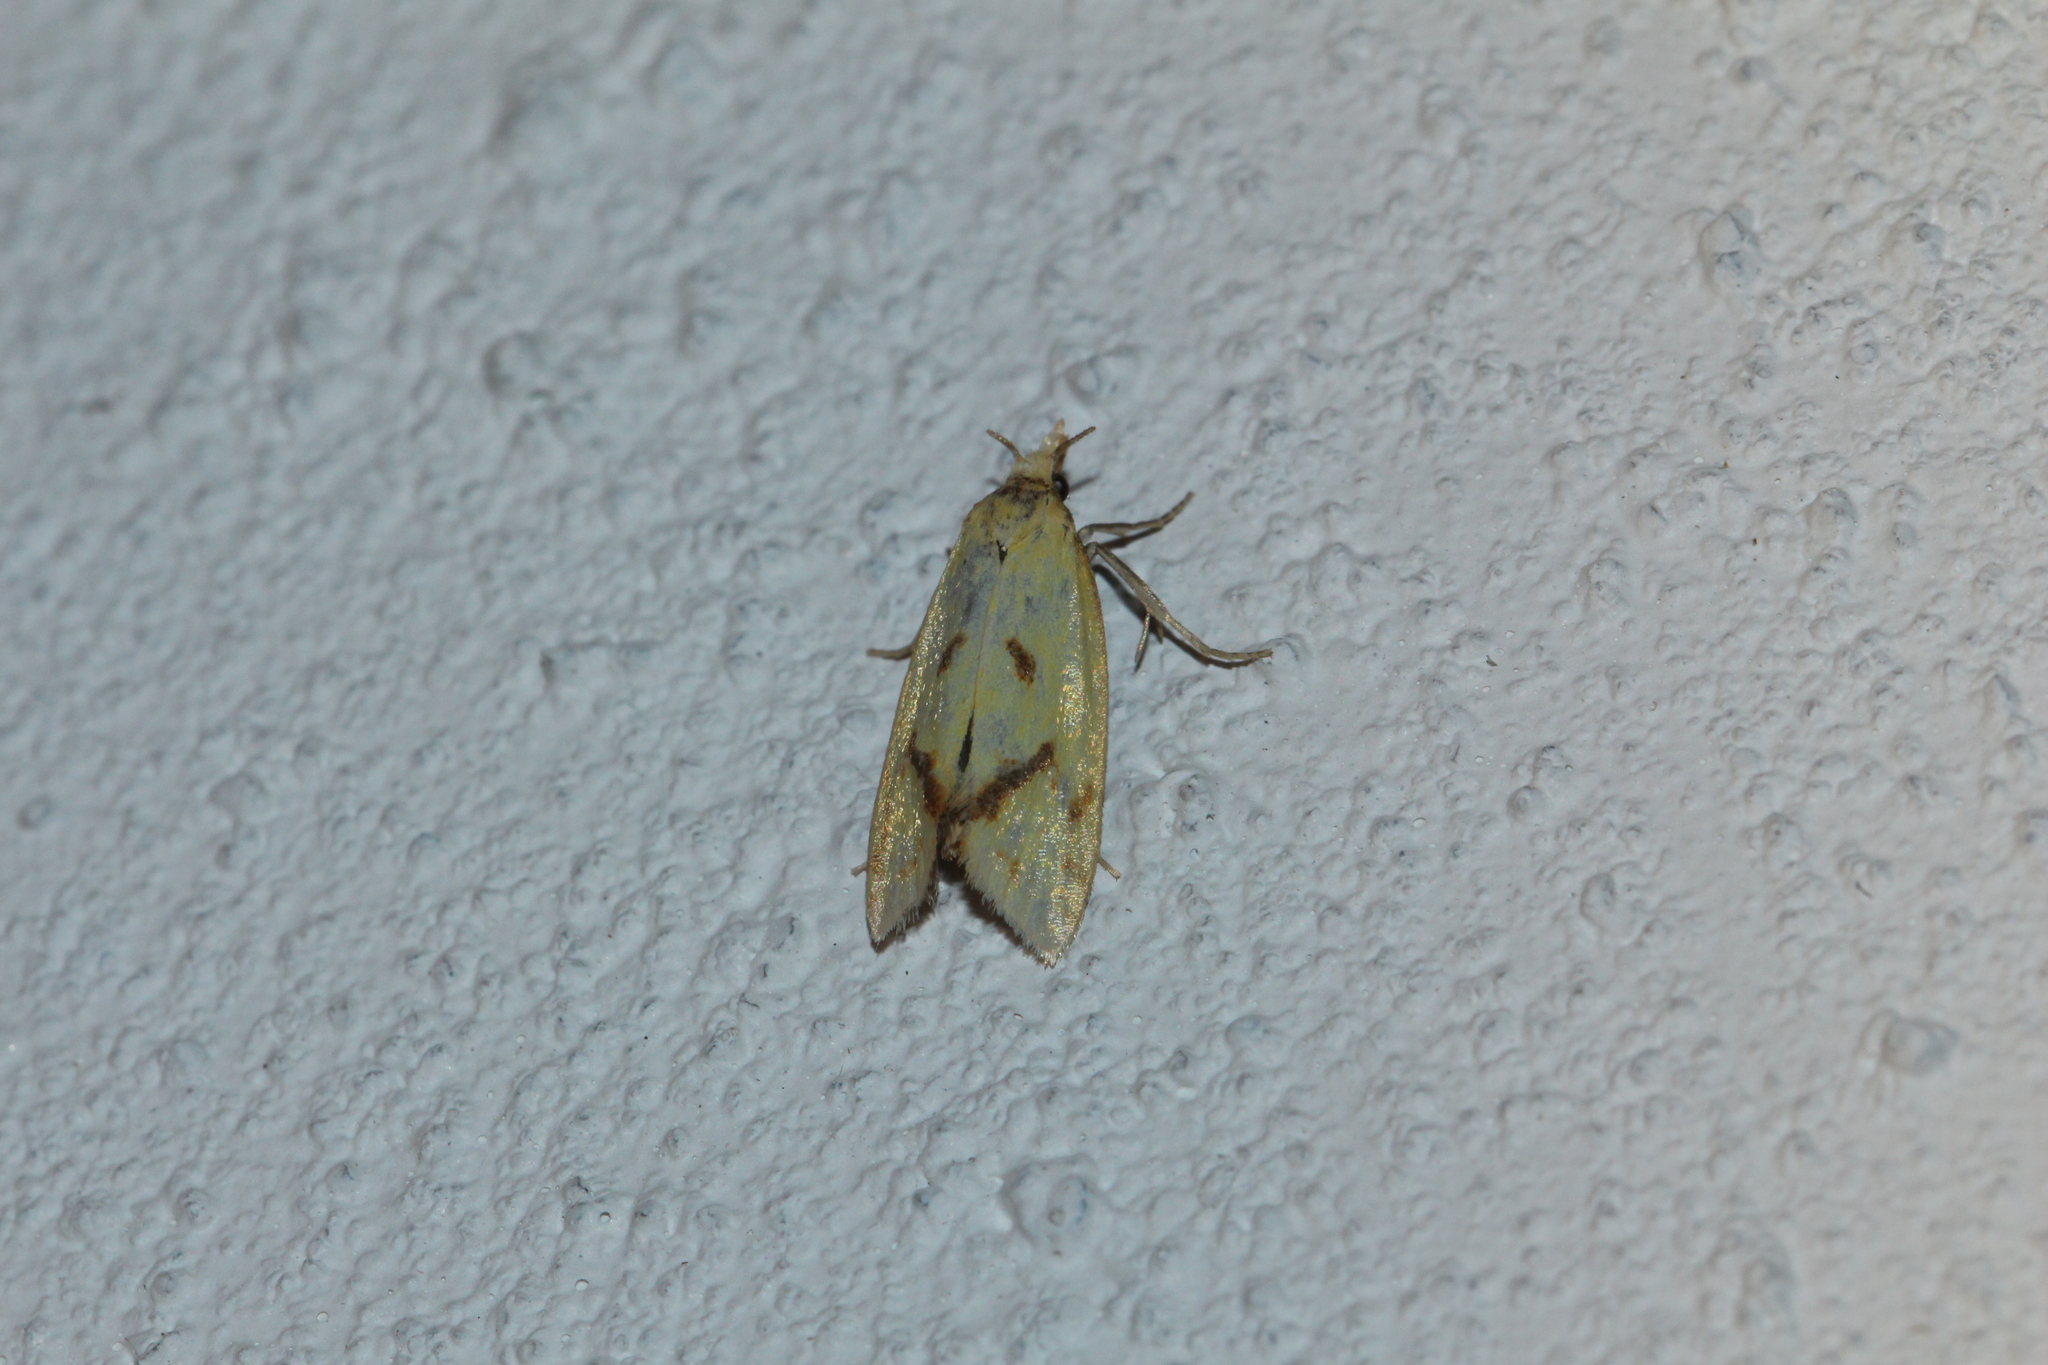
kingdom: Animalia
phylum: Arthropoda
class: Insecta
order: Lepidoptera
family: Tortricidae
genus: Agapeta
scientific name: Agapeta hamana
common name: Common yellow conch
